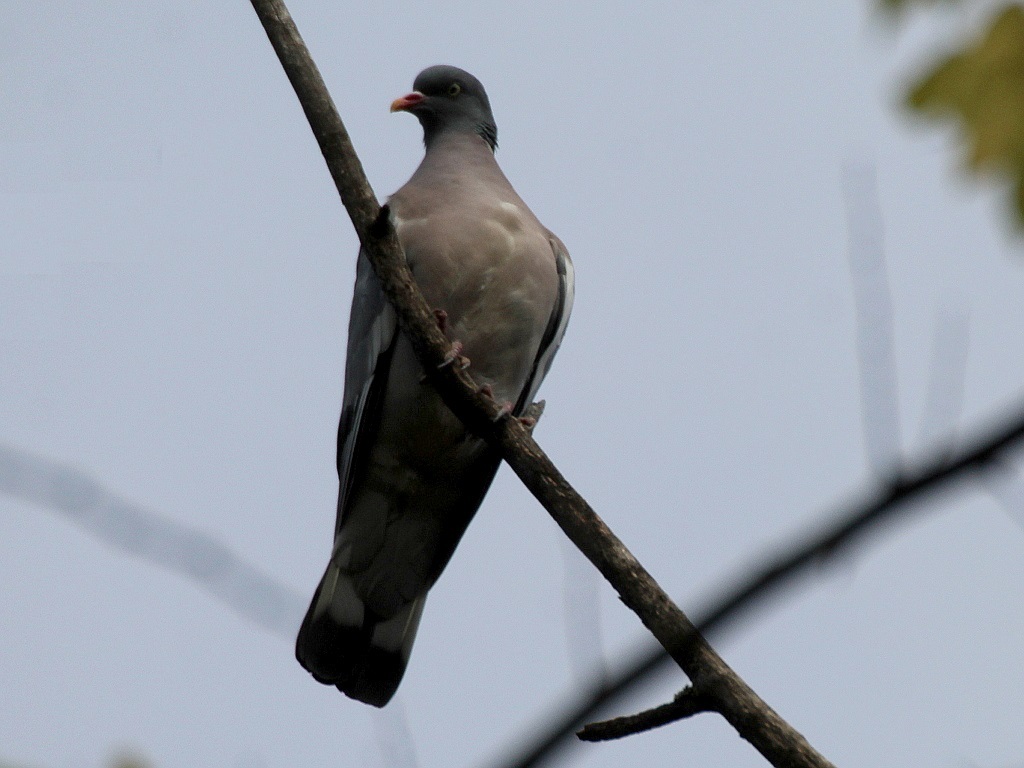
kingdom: Animalia
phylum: Chordata
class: Aves
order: Columbiformes
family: Columbidae
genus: Columba
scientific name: Columba palumbus
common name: Common wood pigeon
